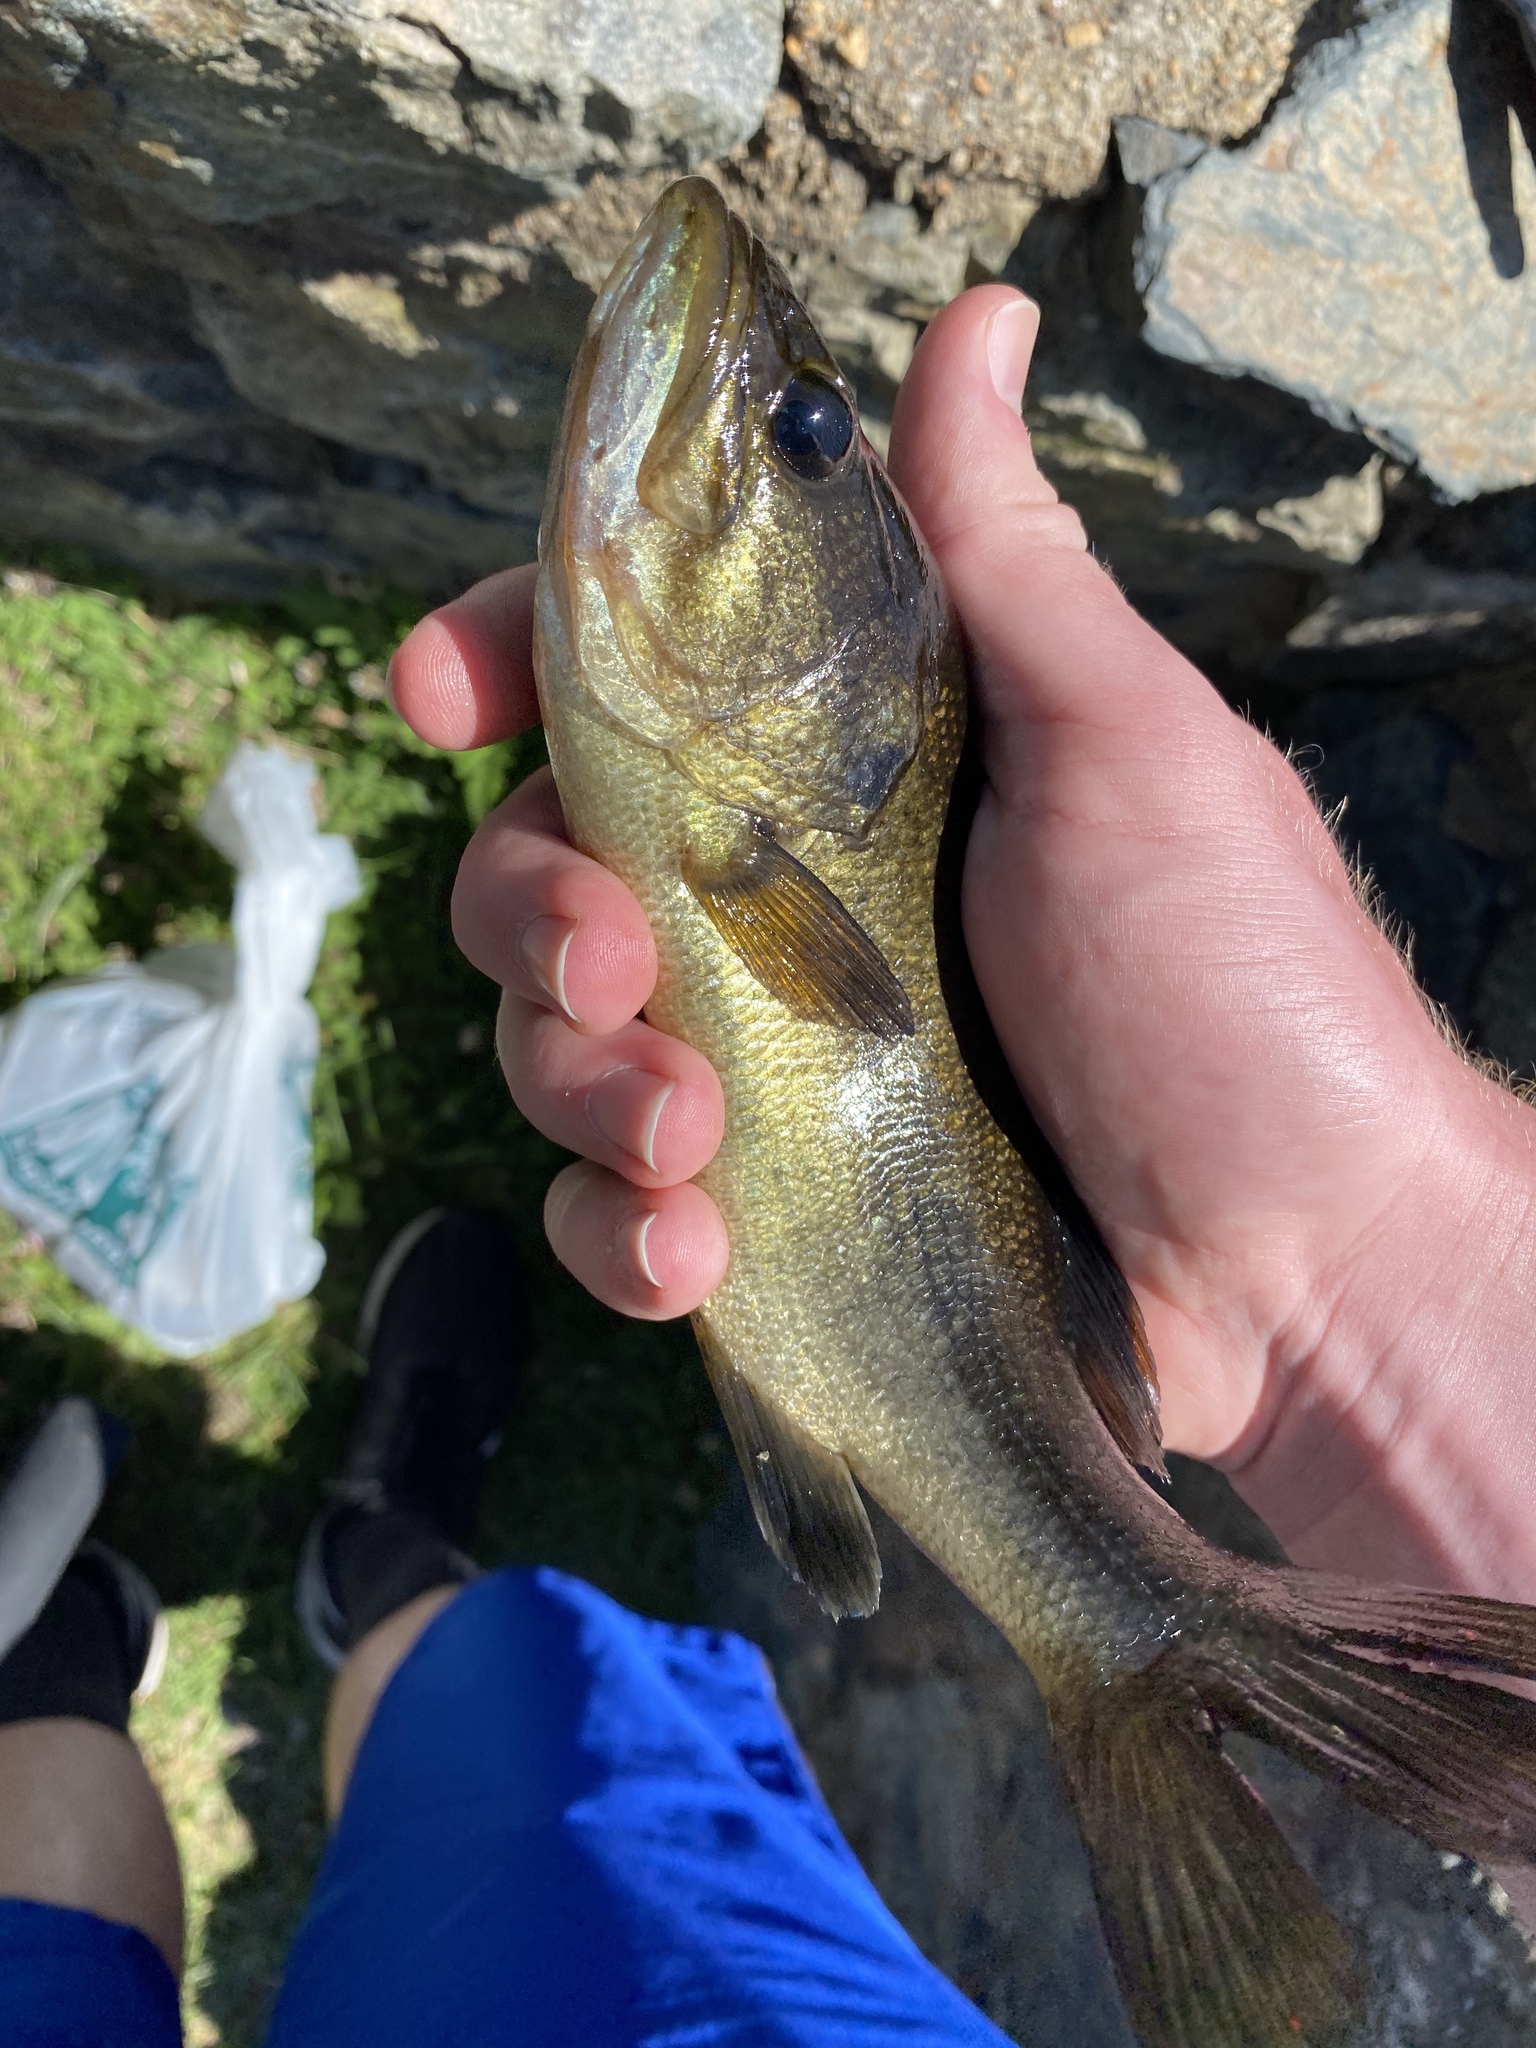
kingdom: Animalia
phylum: Chordata
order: Perciformes
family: Centrarchidae
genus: Micropterus
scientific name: Micropterus
